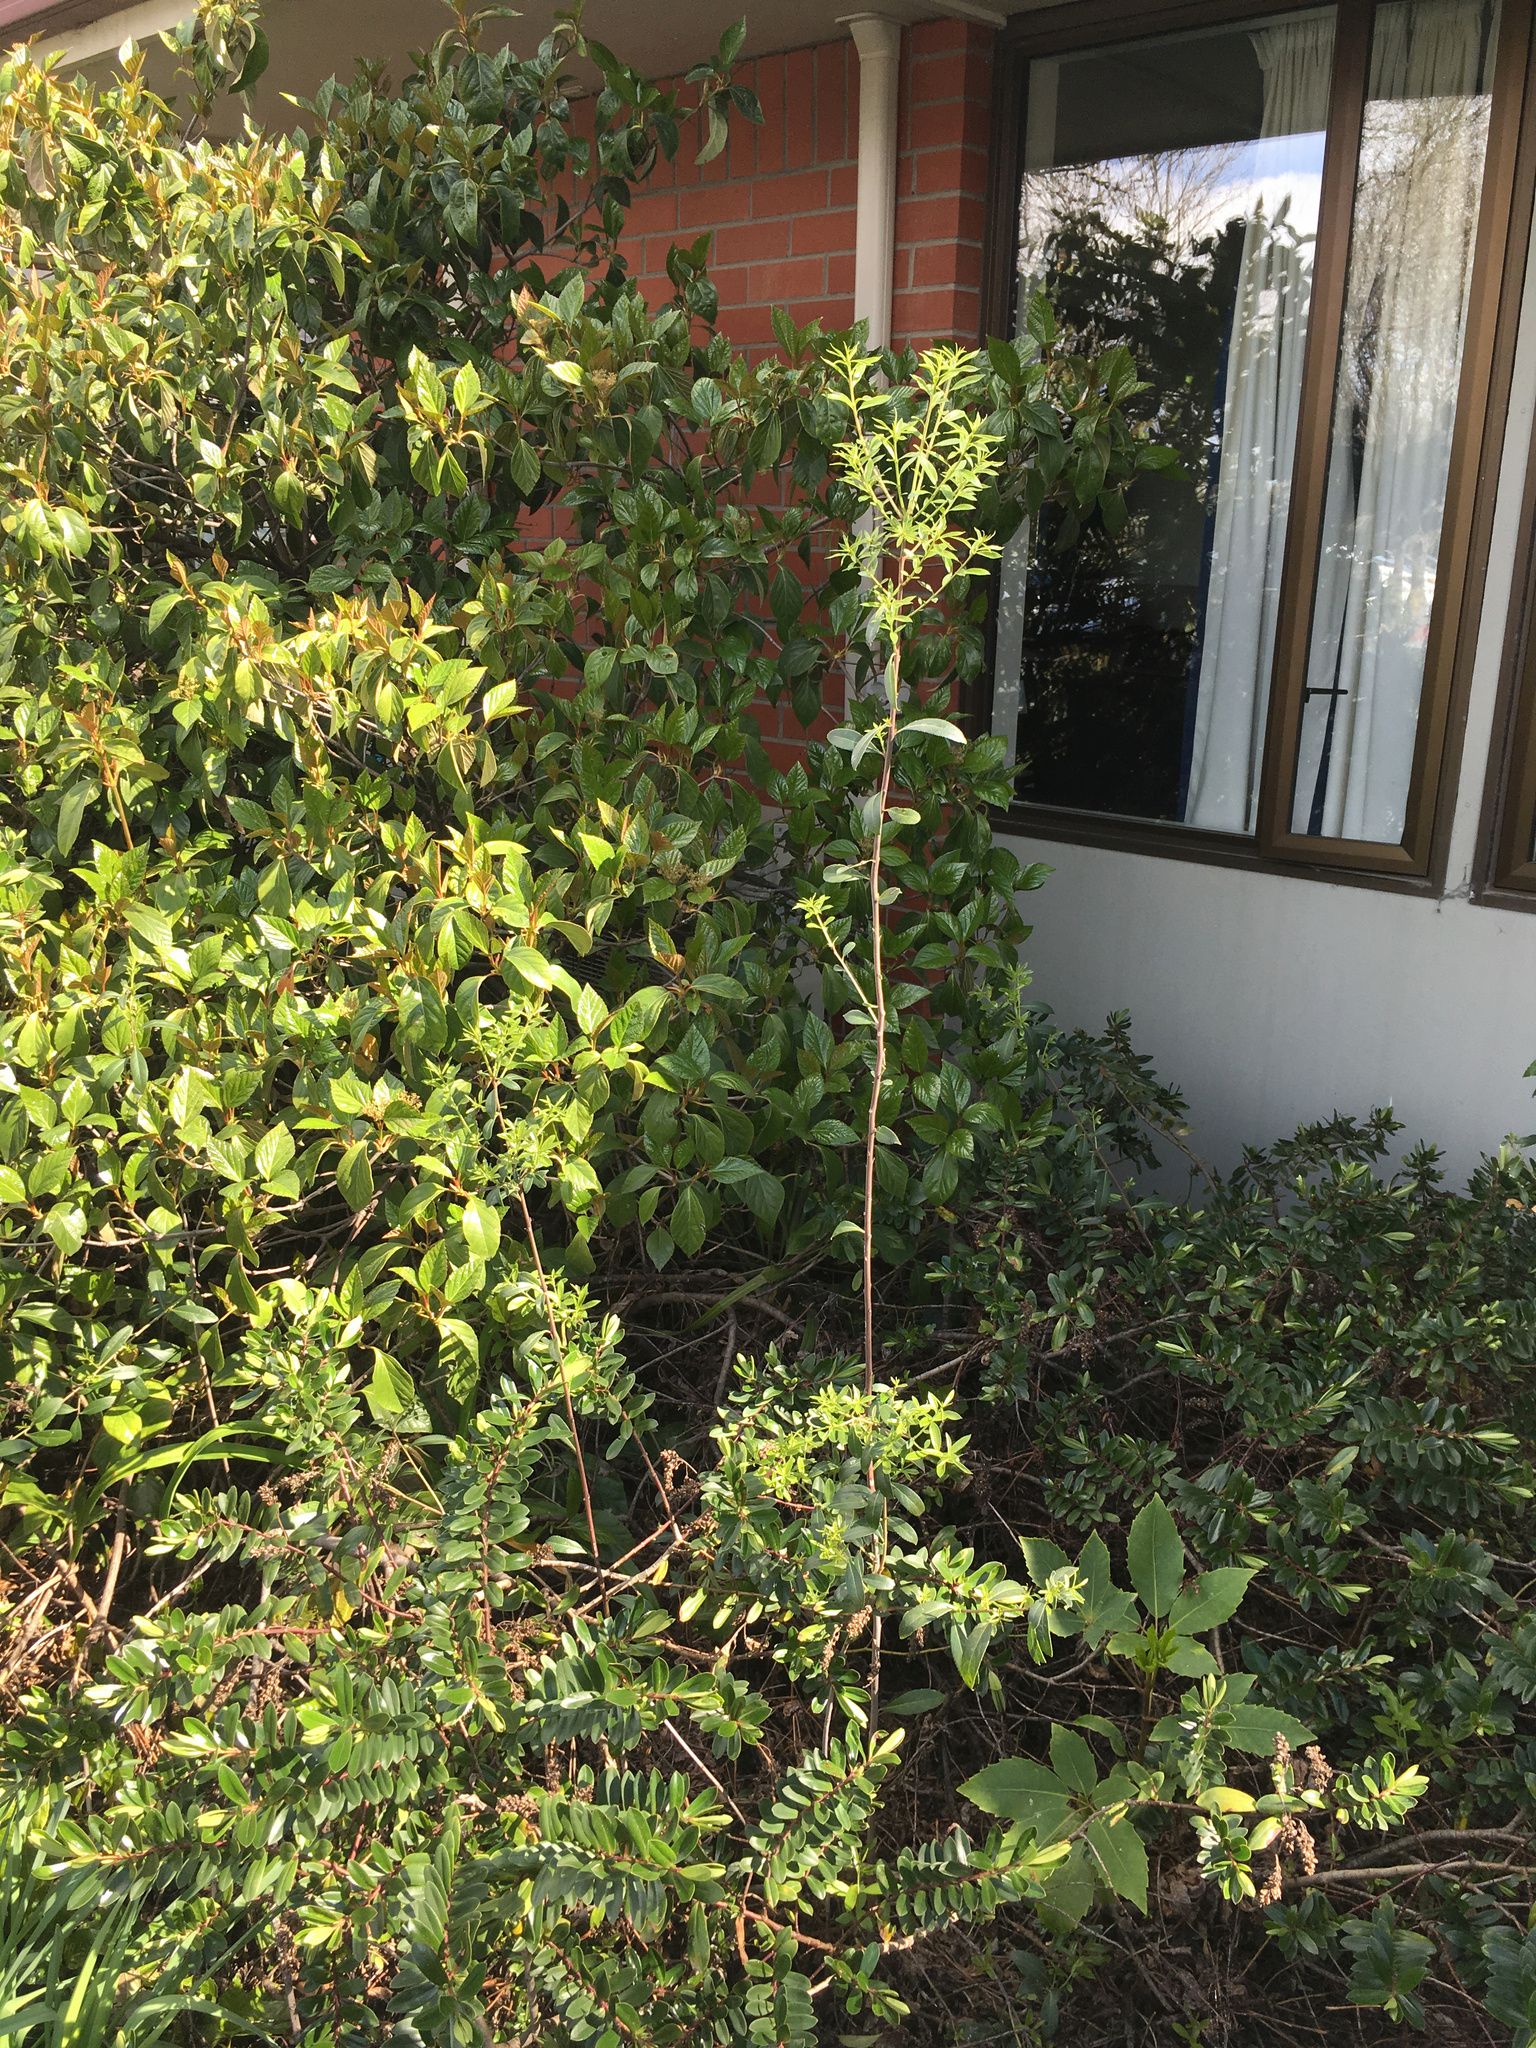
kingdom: Plantae
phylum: Tracheophyta
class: Magnoliopsida
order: Celastrales
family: Celastraceae
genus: Maytenus
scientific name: Maytenus boaria
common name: Mayten
